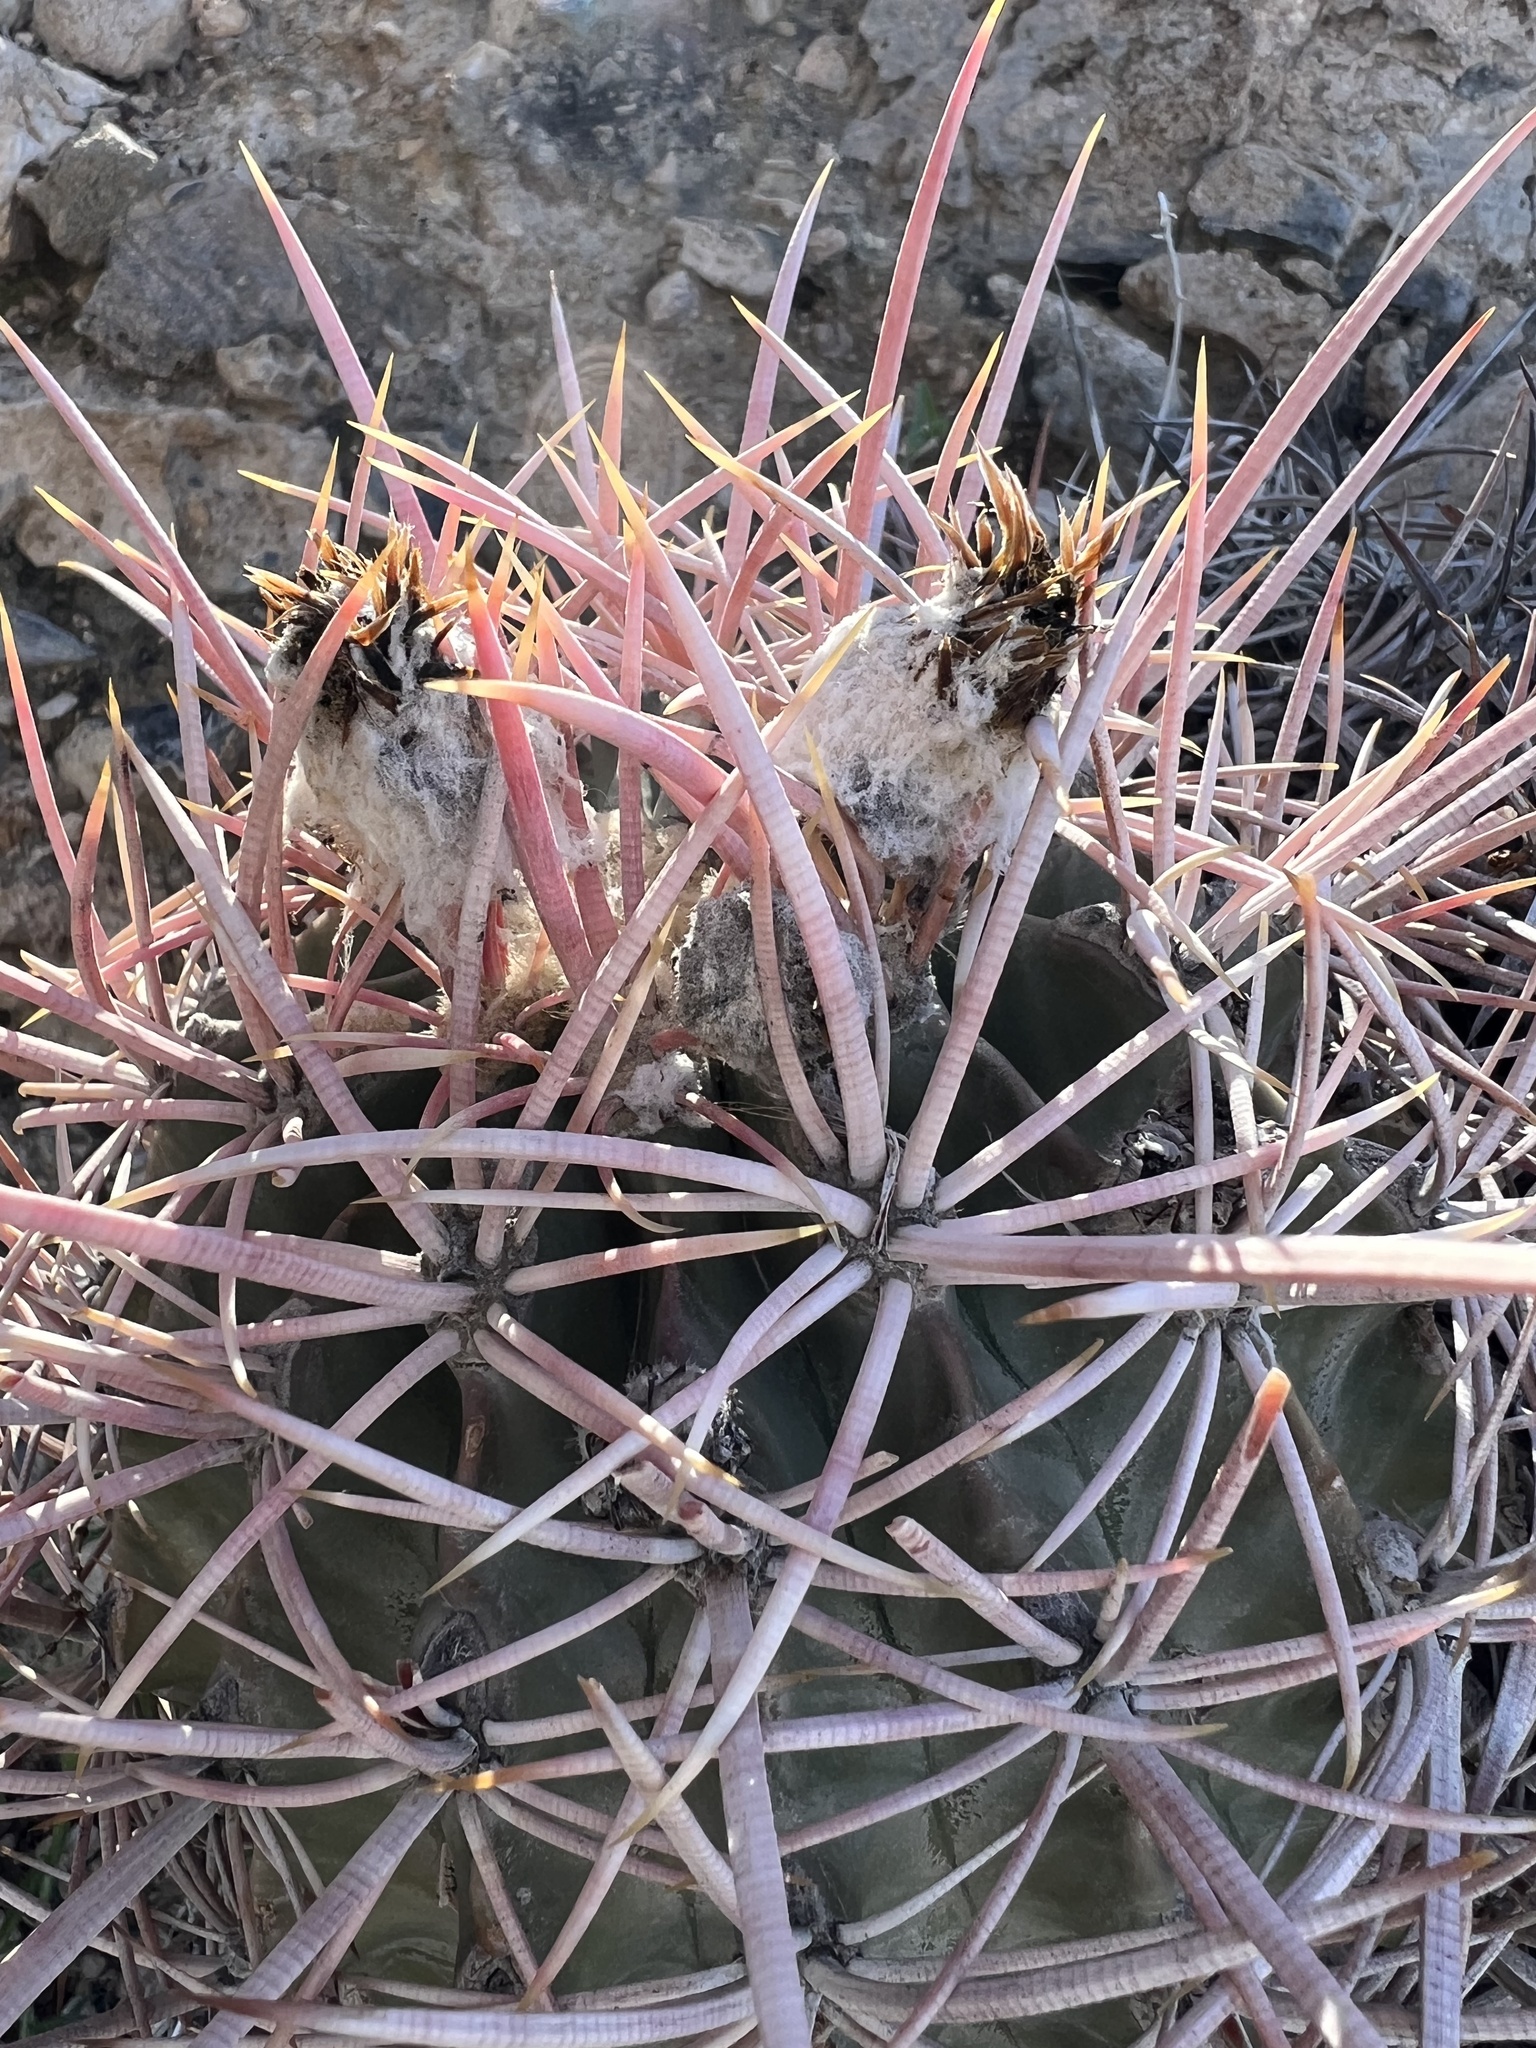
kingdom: Plantae
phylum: Tracheophyta
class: Magnoliopsida
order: Caryophyllales
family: Cactaceae
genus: Echinocactus
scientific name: Echinocactus polycephalus
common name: Cottontop cactus
